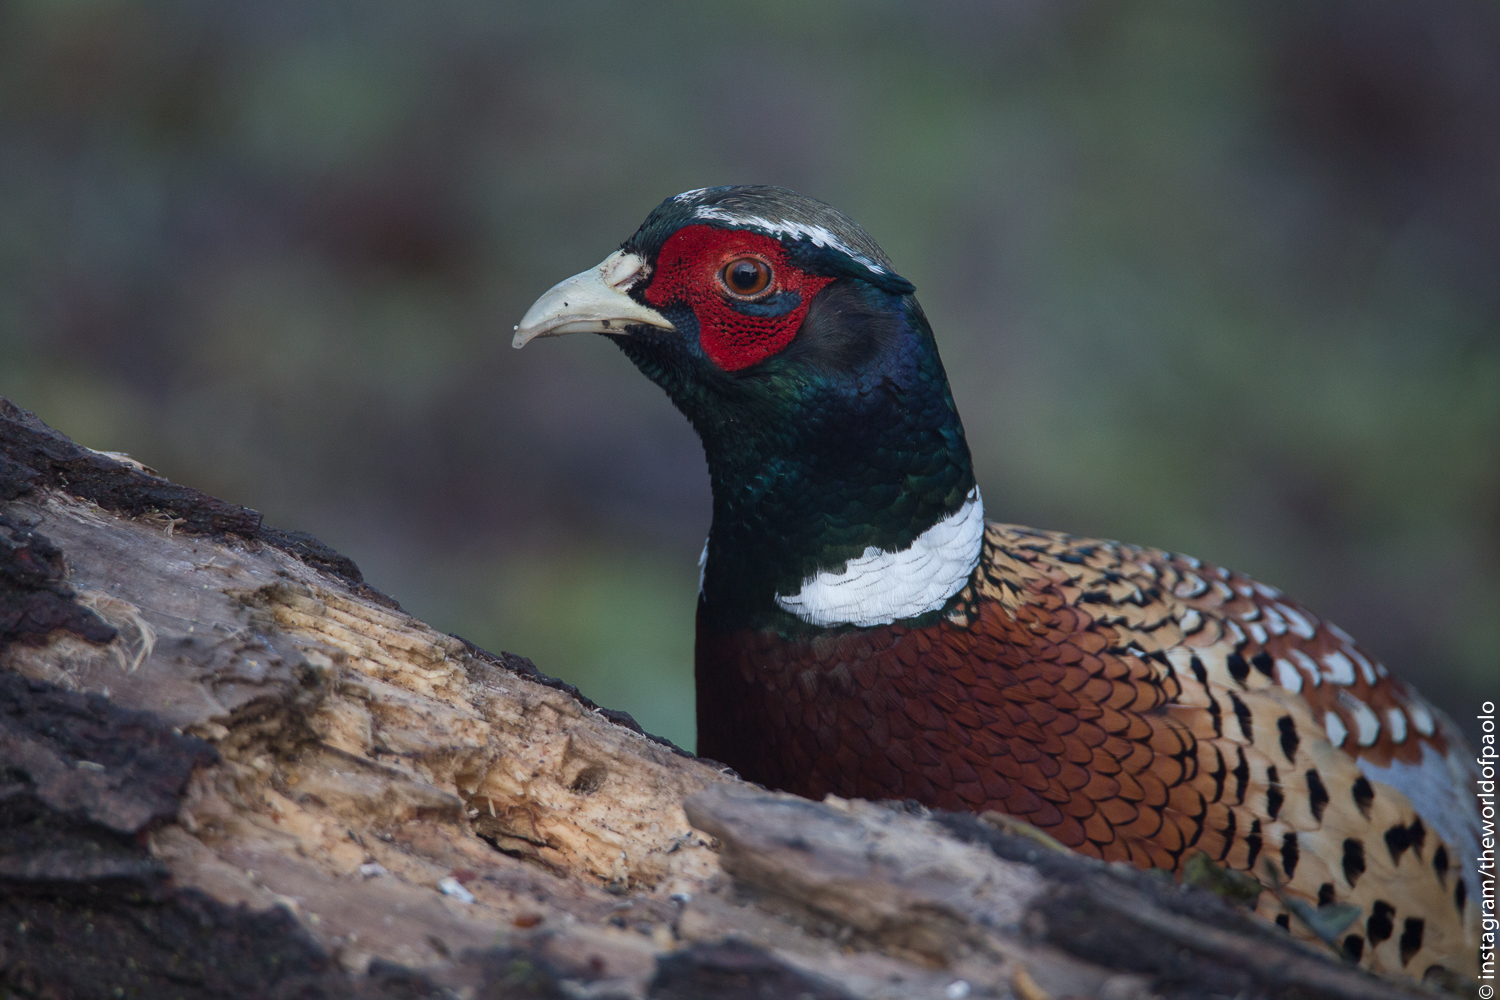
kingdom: Animalia
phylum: Chordata
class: Aves
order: Galliformes
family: Phasianidae
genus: Phasianus
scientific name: Phasianus colchicus
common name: Common pheasant
